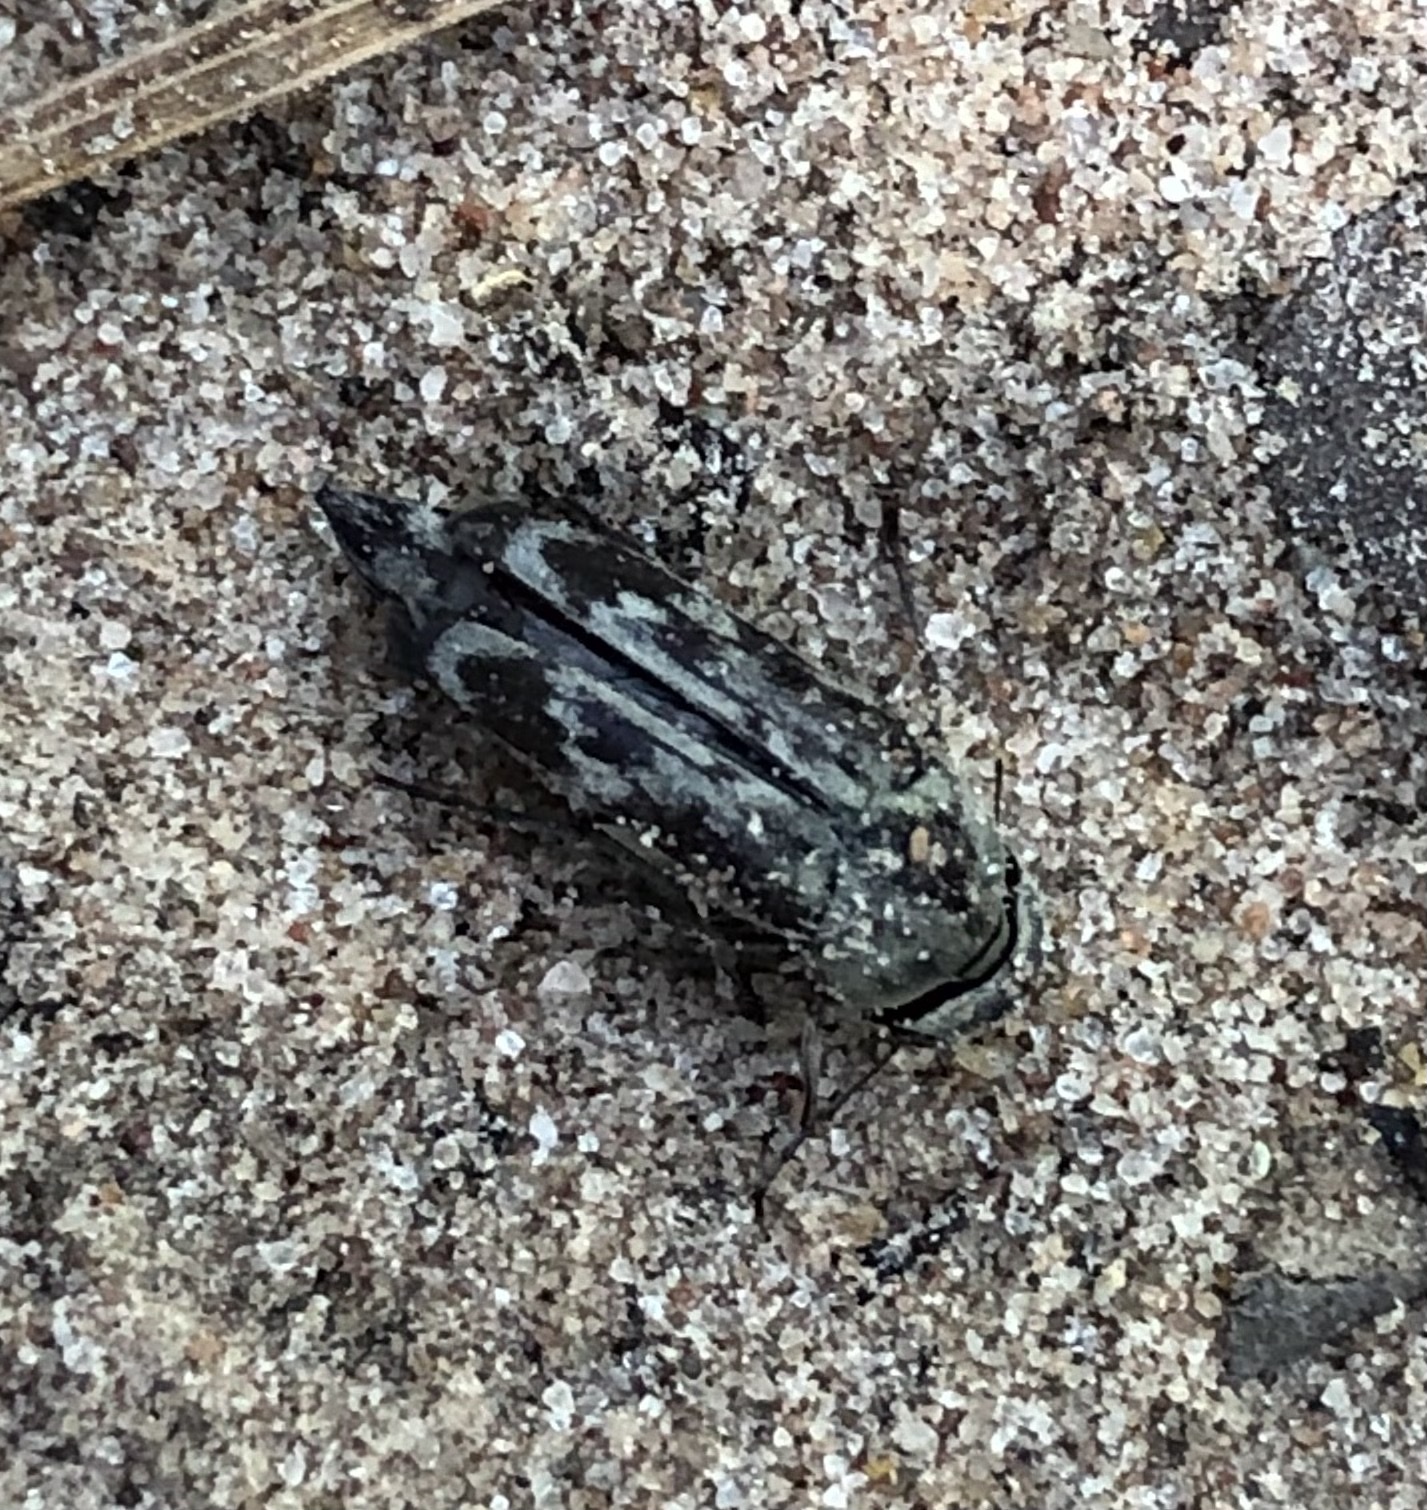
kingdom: Animalia
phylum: Arthropoda
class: Insecta
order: Coleoptera
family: Mordellidae
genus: Yakuhananomia
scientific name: Yakuhananomia bidentata
